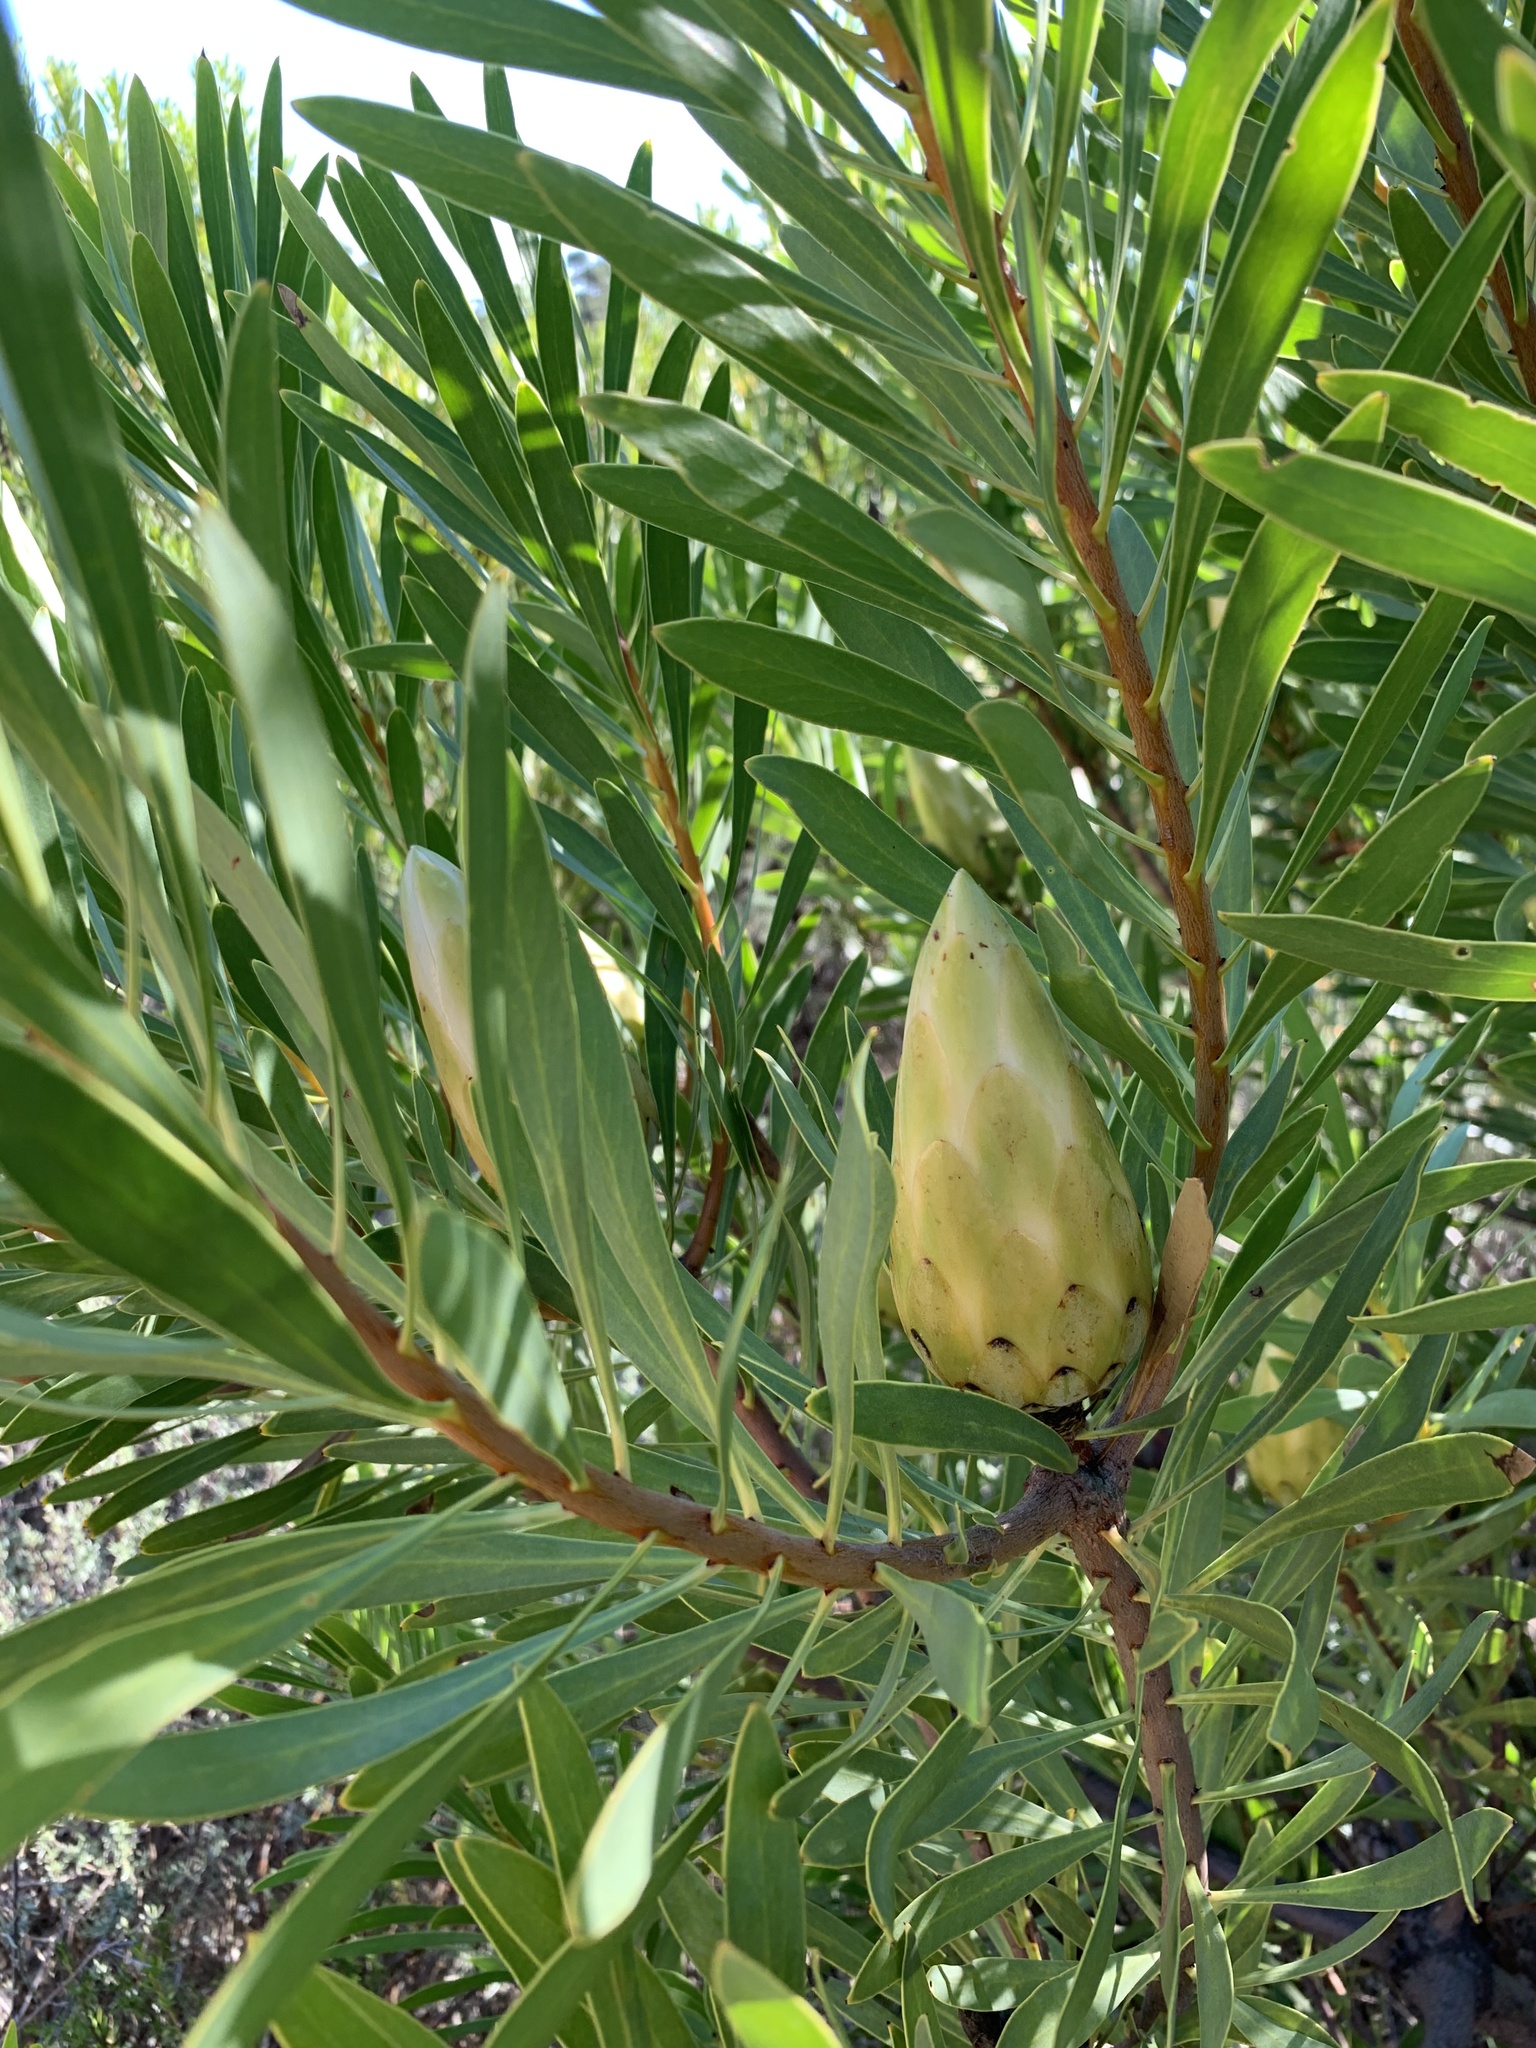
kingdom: Plantae
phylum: Tracheophyta
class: Magnoliopsida
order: Proteales
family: Proteaceae
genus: Protea
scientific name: Protea repens
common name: Sugarbush
